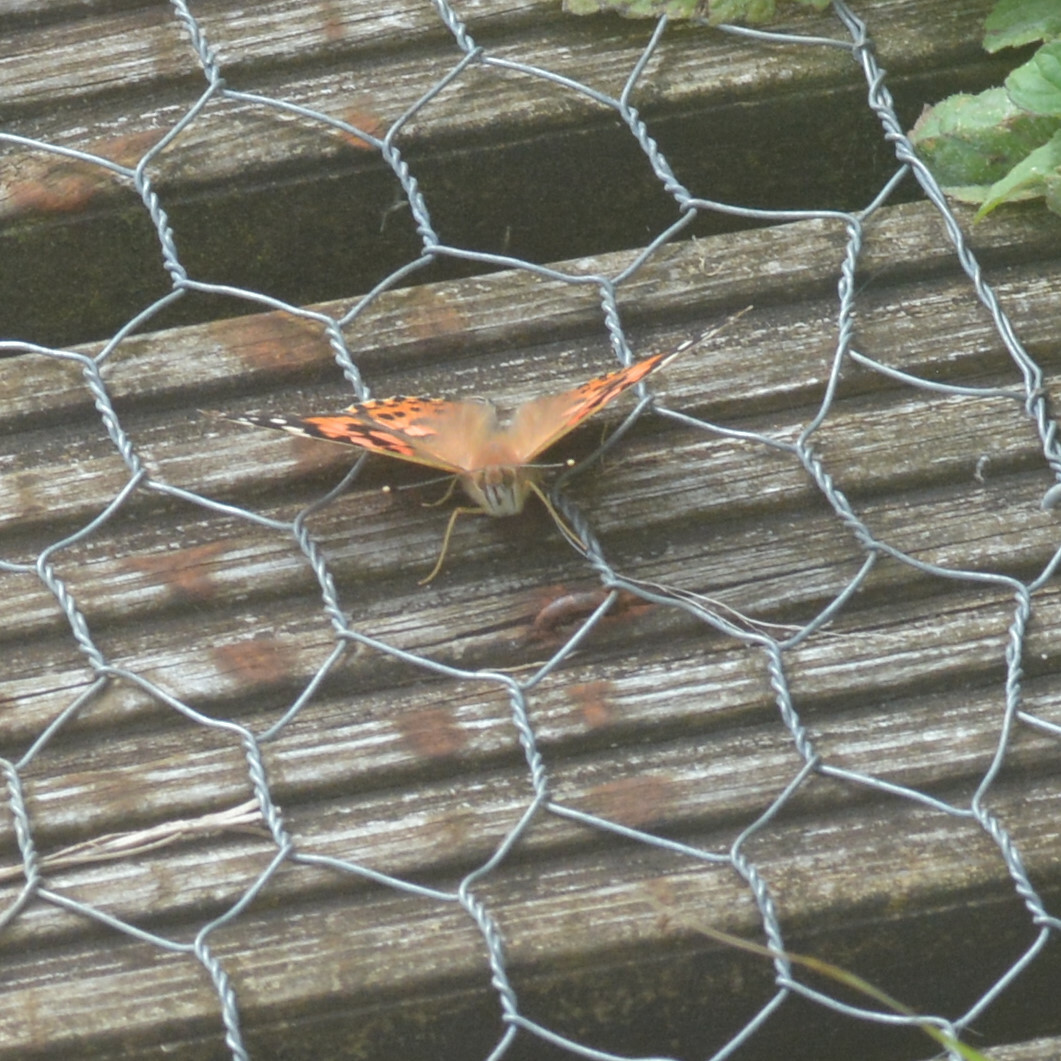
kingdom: Animalia
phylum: Arthropoda
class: Insecta
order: Lepidoptera
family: Nymphalidae
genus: Vanessa
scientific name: Vanessa cardui
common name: Painted lady
